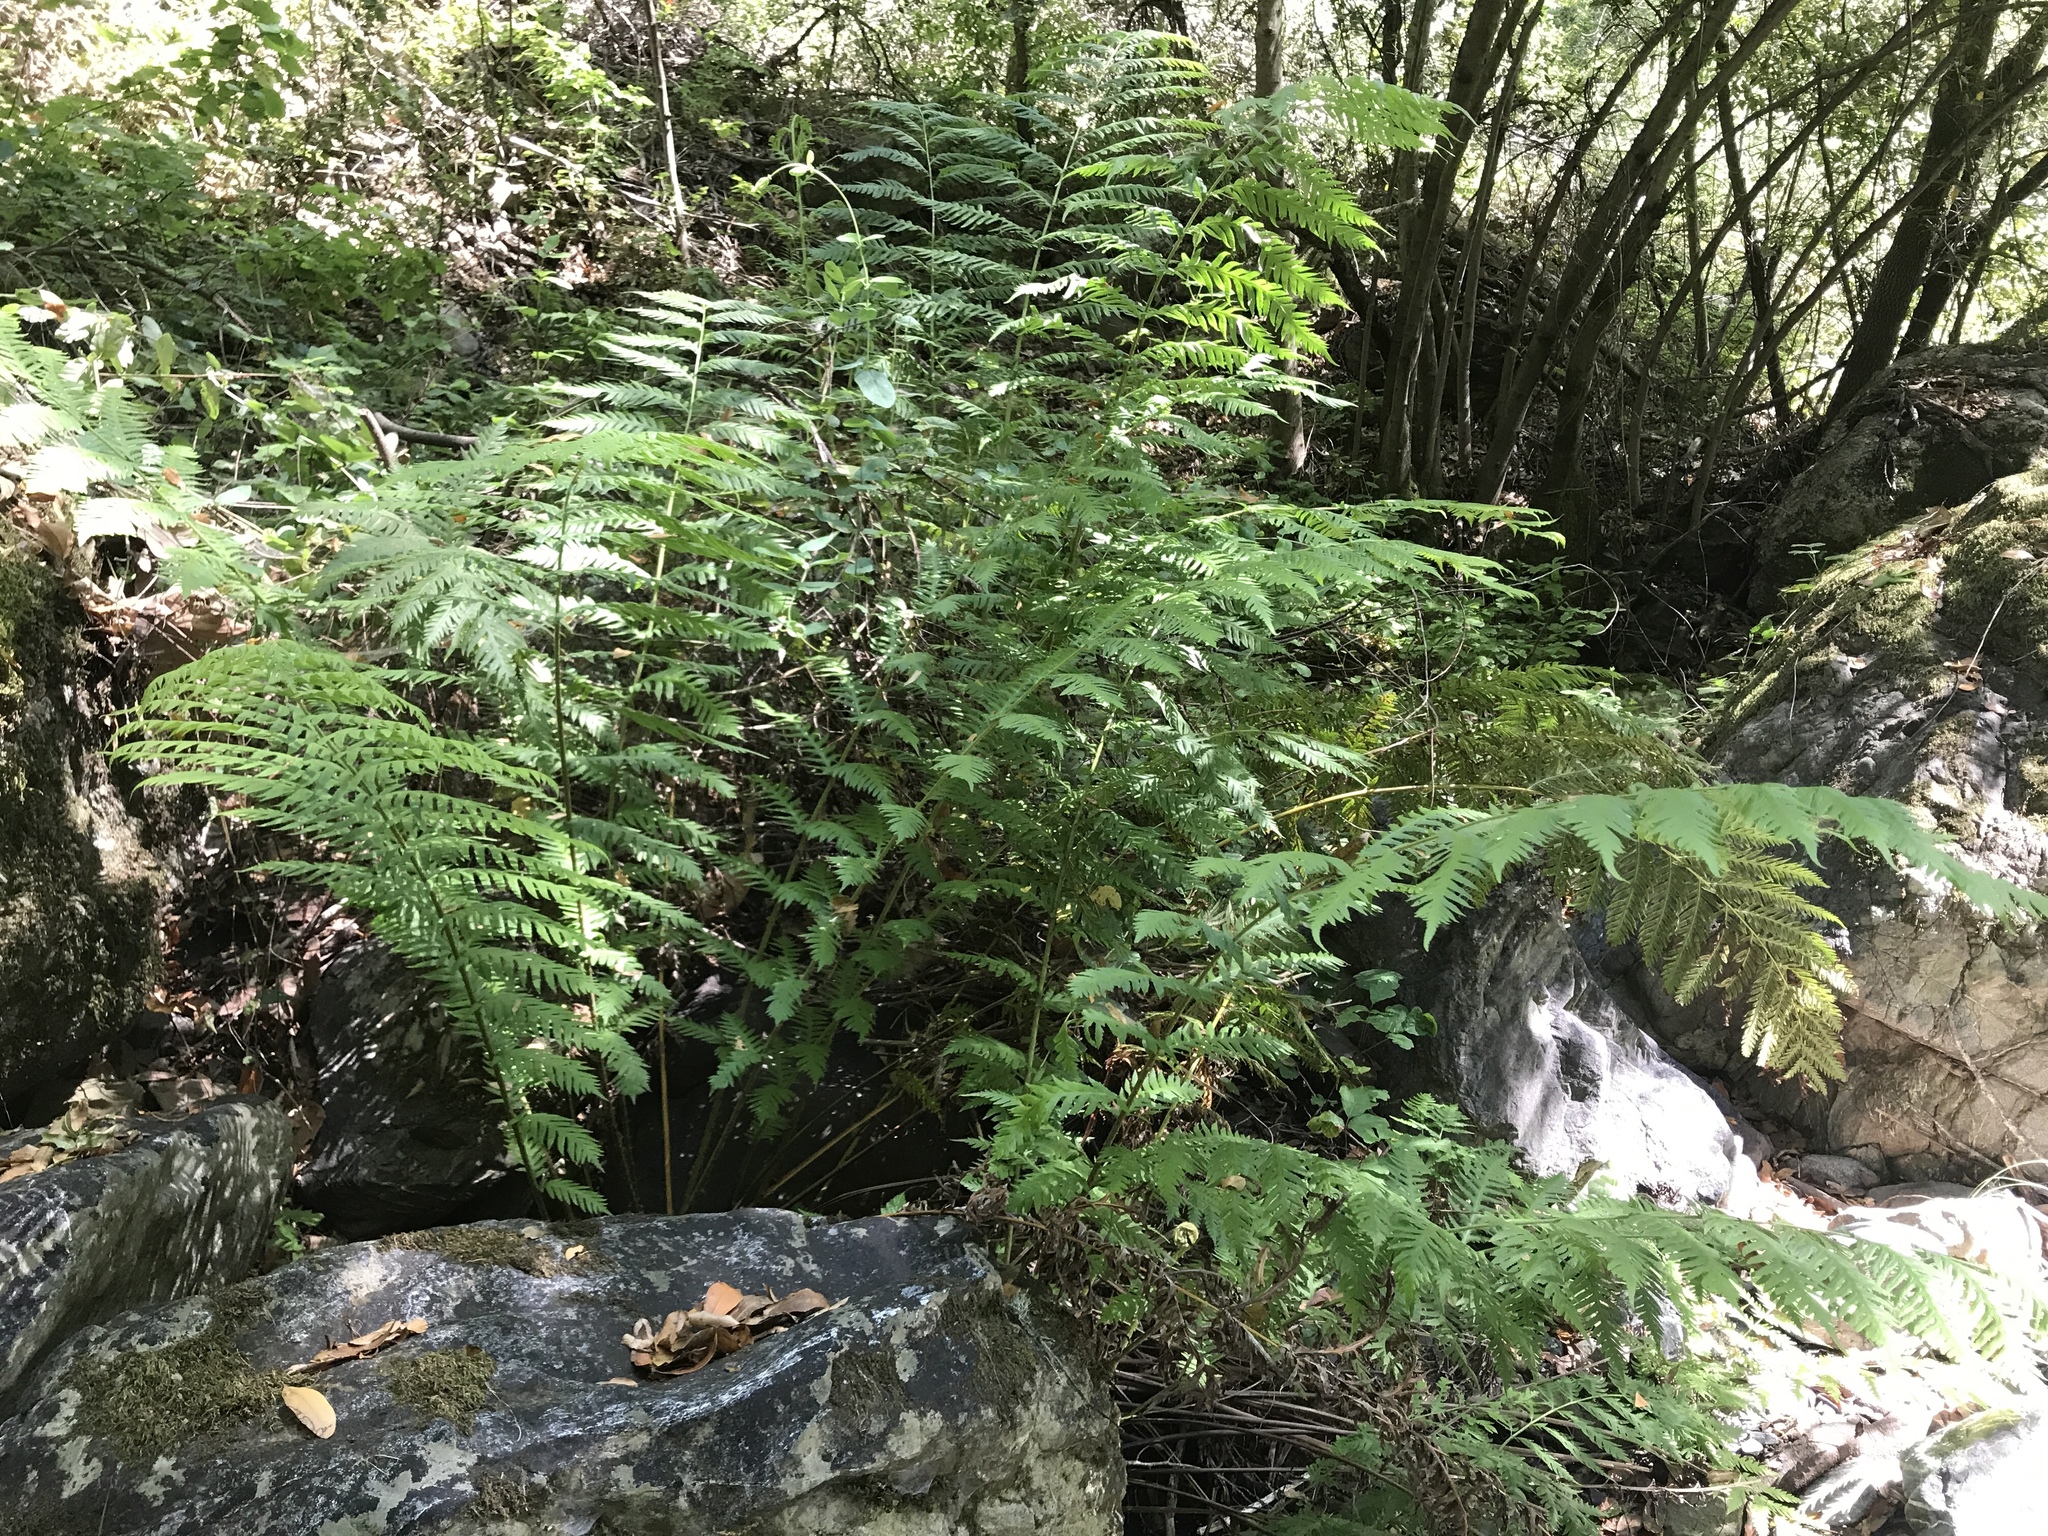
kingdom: Plantae
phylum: Tracheophyta
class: Polypodiopsida
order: Polypodiales
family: Blechnaceae
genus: Woodwardia
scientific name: Woodwardia fimbriata
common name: Giant chain fern
